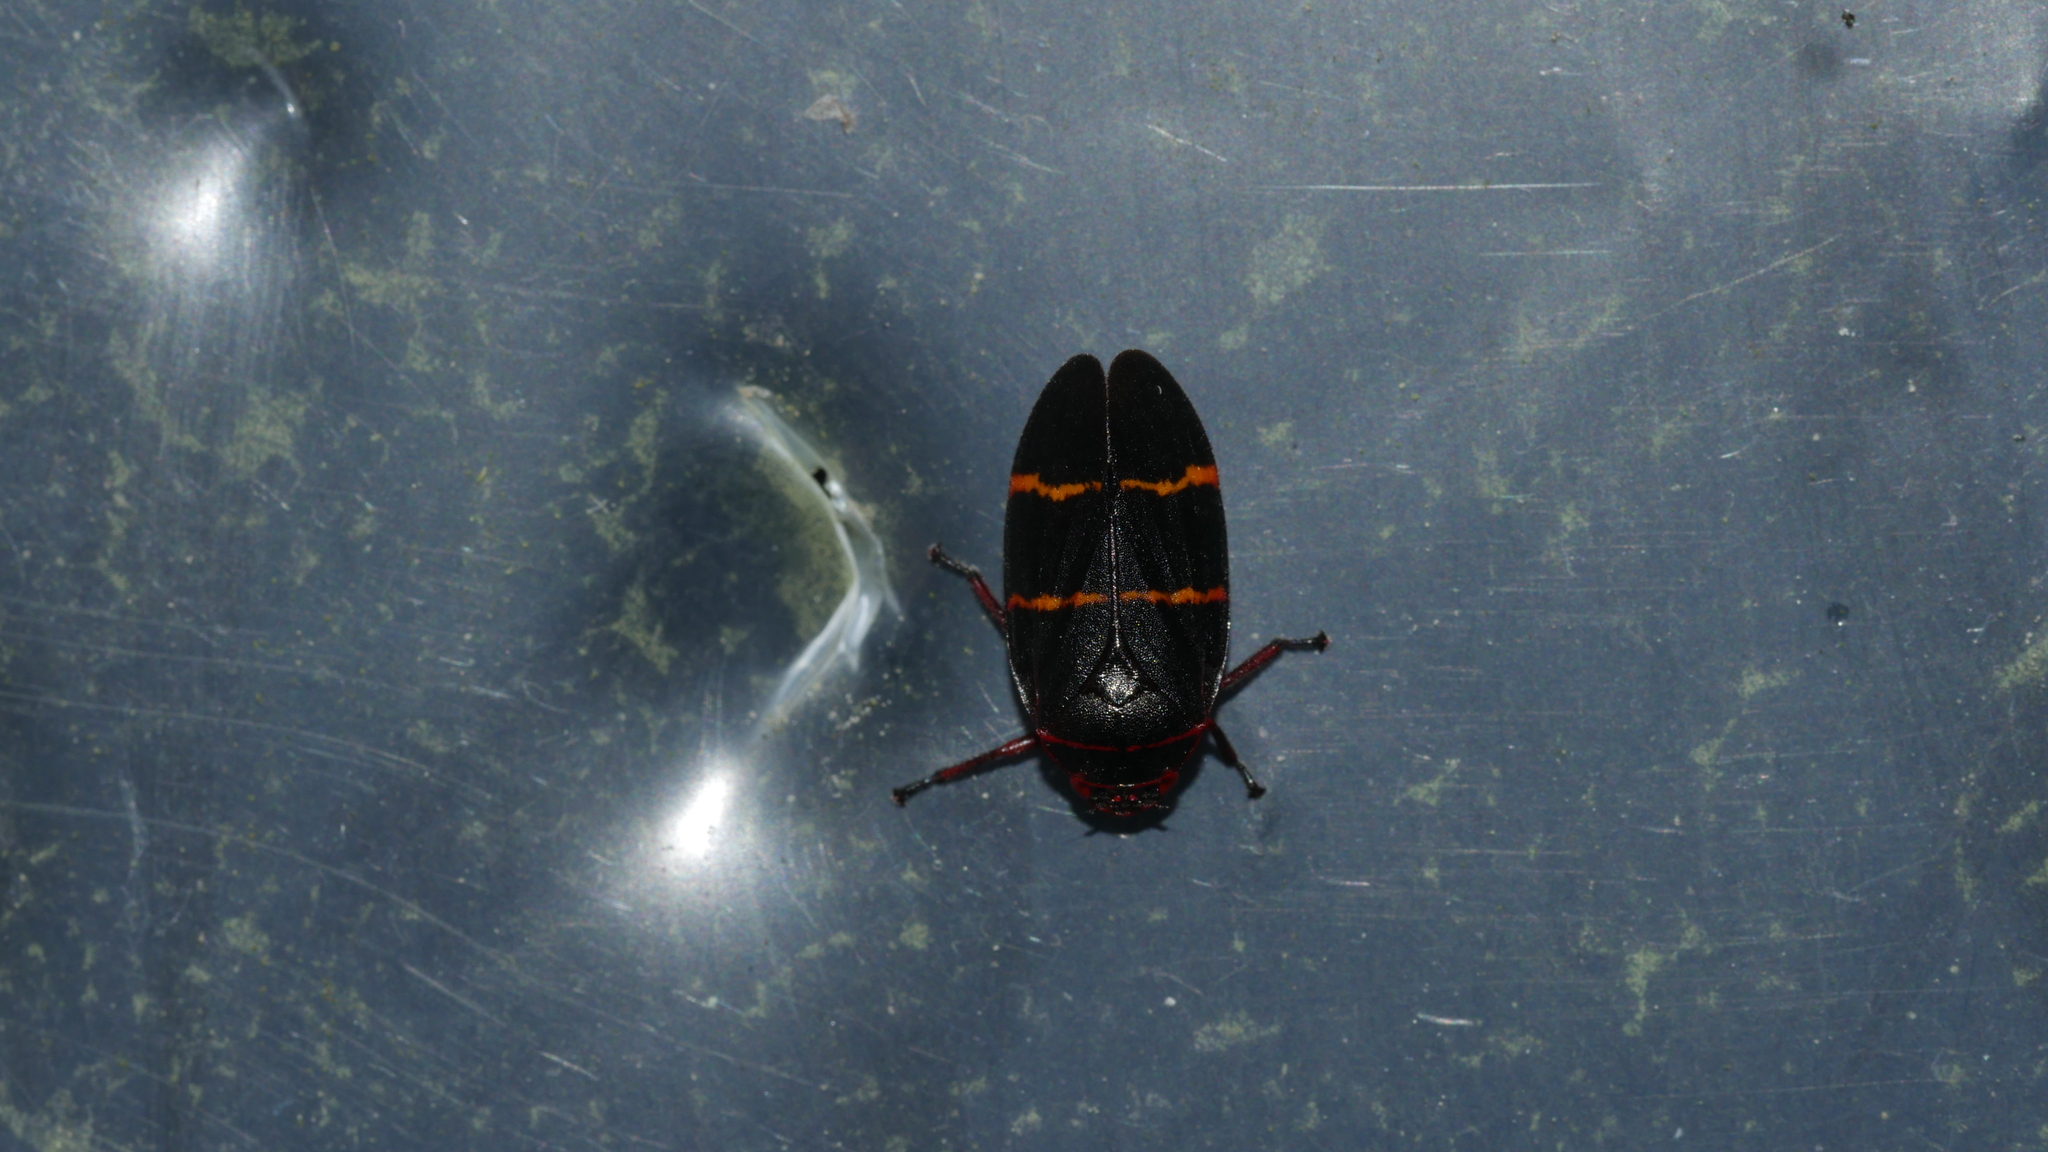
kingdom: Animalia
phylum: Arthropoda
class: Insecta
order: Hemiptera
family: Cercopidae
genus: Prosapia
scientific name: Prosapia bicincta
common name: Twolined spittlebug
